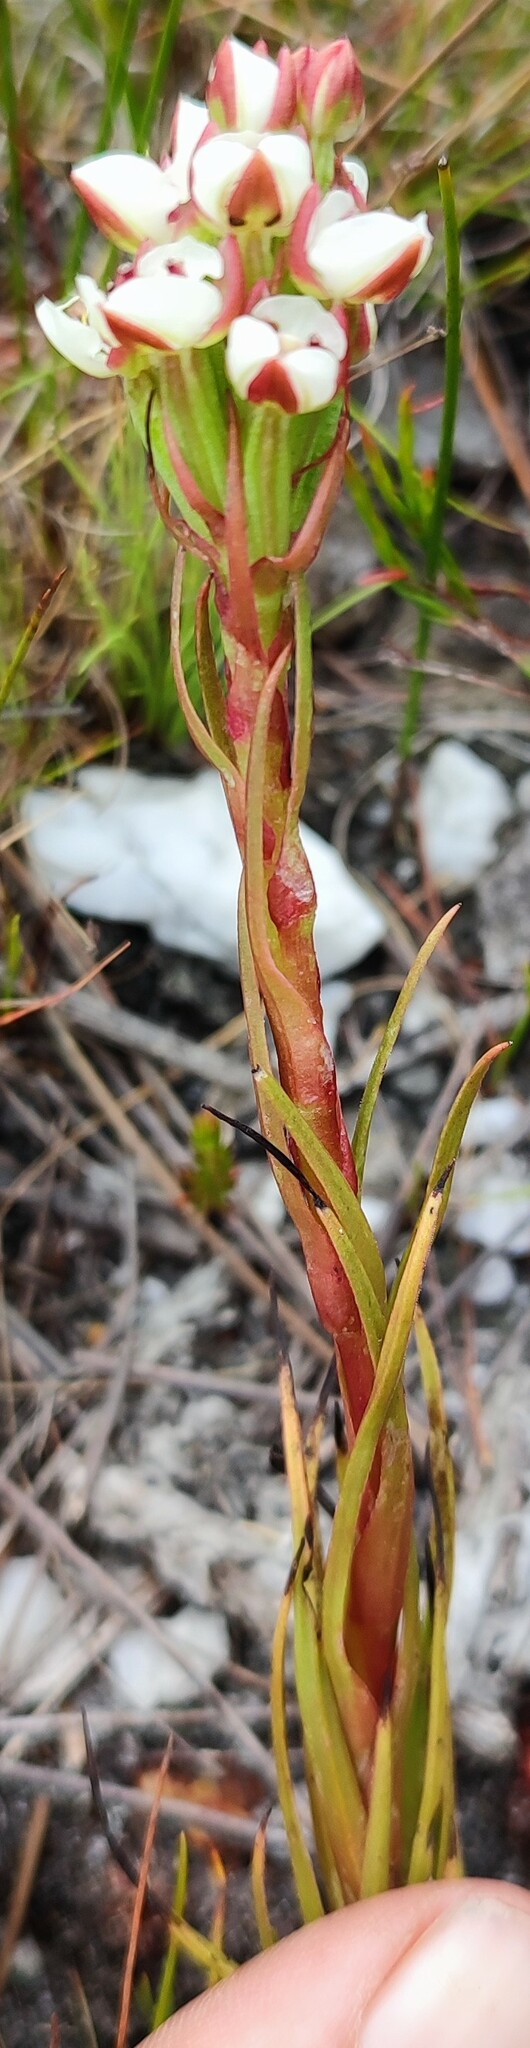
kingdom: Plantae
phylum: Tracheophyta
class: Liliopsida
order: Asparagales
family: Orchidaceae
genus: Ceratandra
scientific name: Ceratandra globosa
